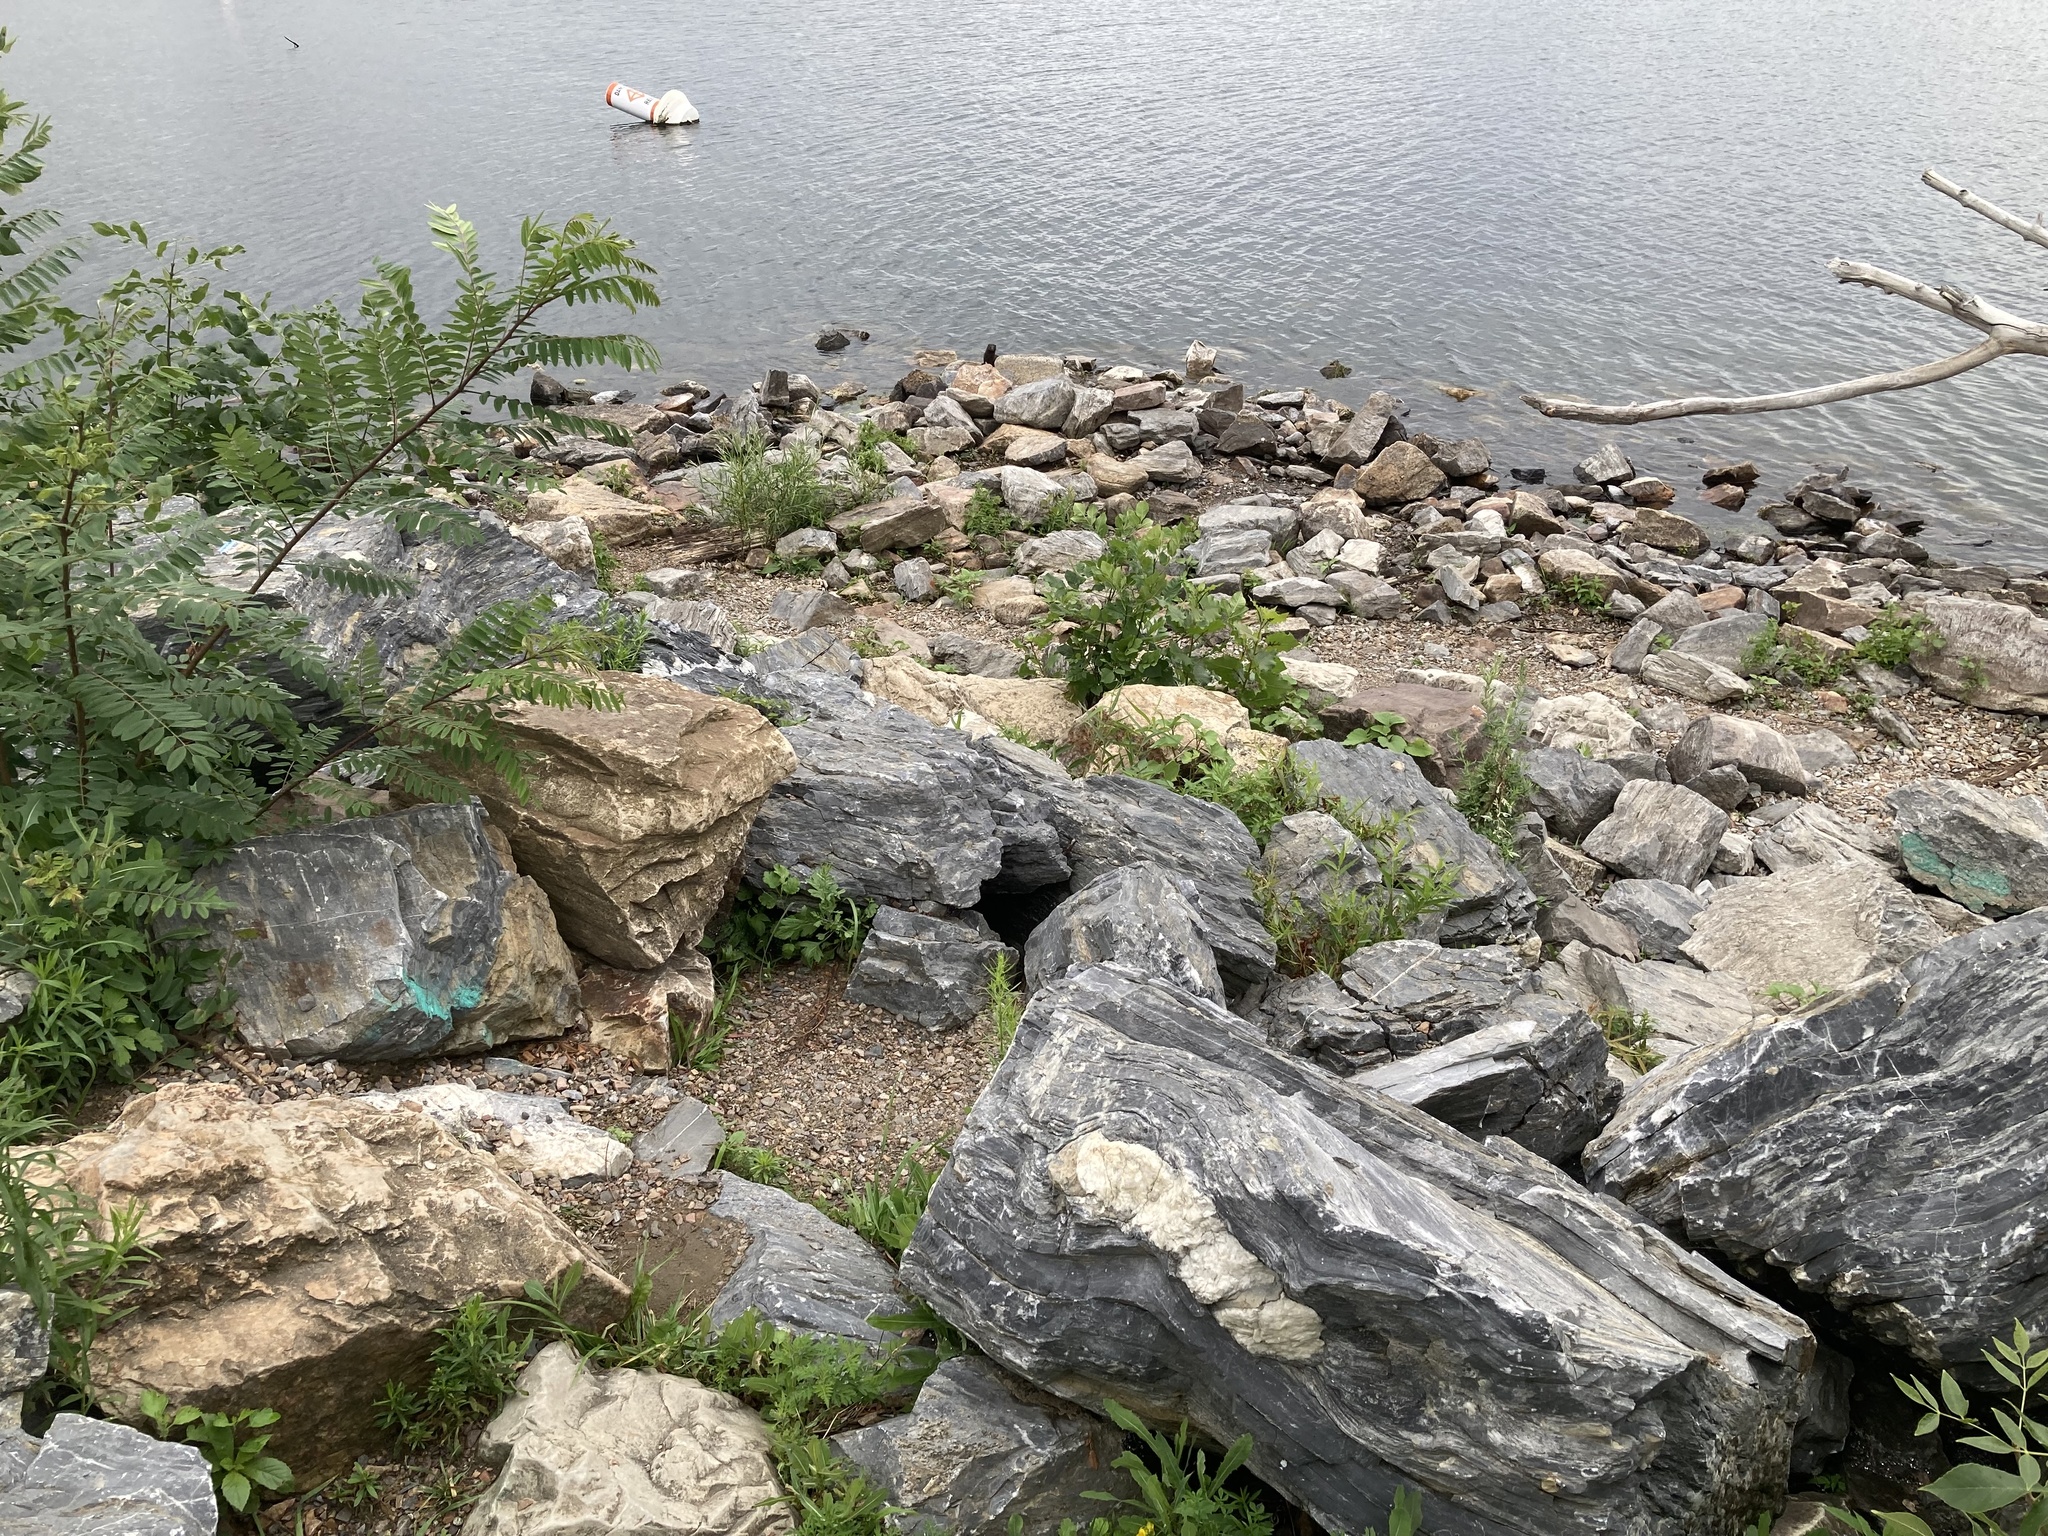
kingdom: Animalia
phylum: Chordata
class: Mammalia
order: Carnivora
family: Mustelidae
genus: Mustela
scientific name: Mustela
